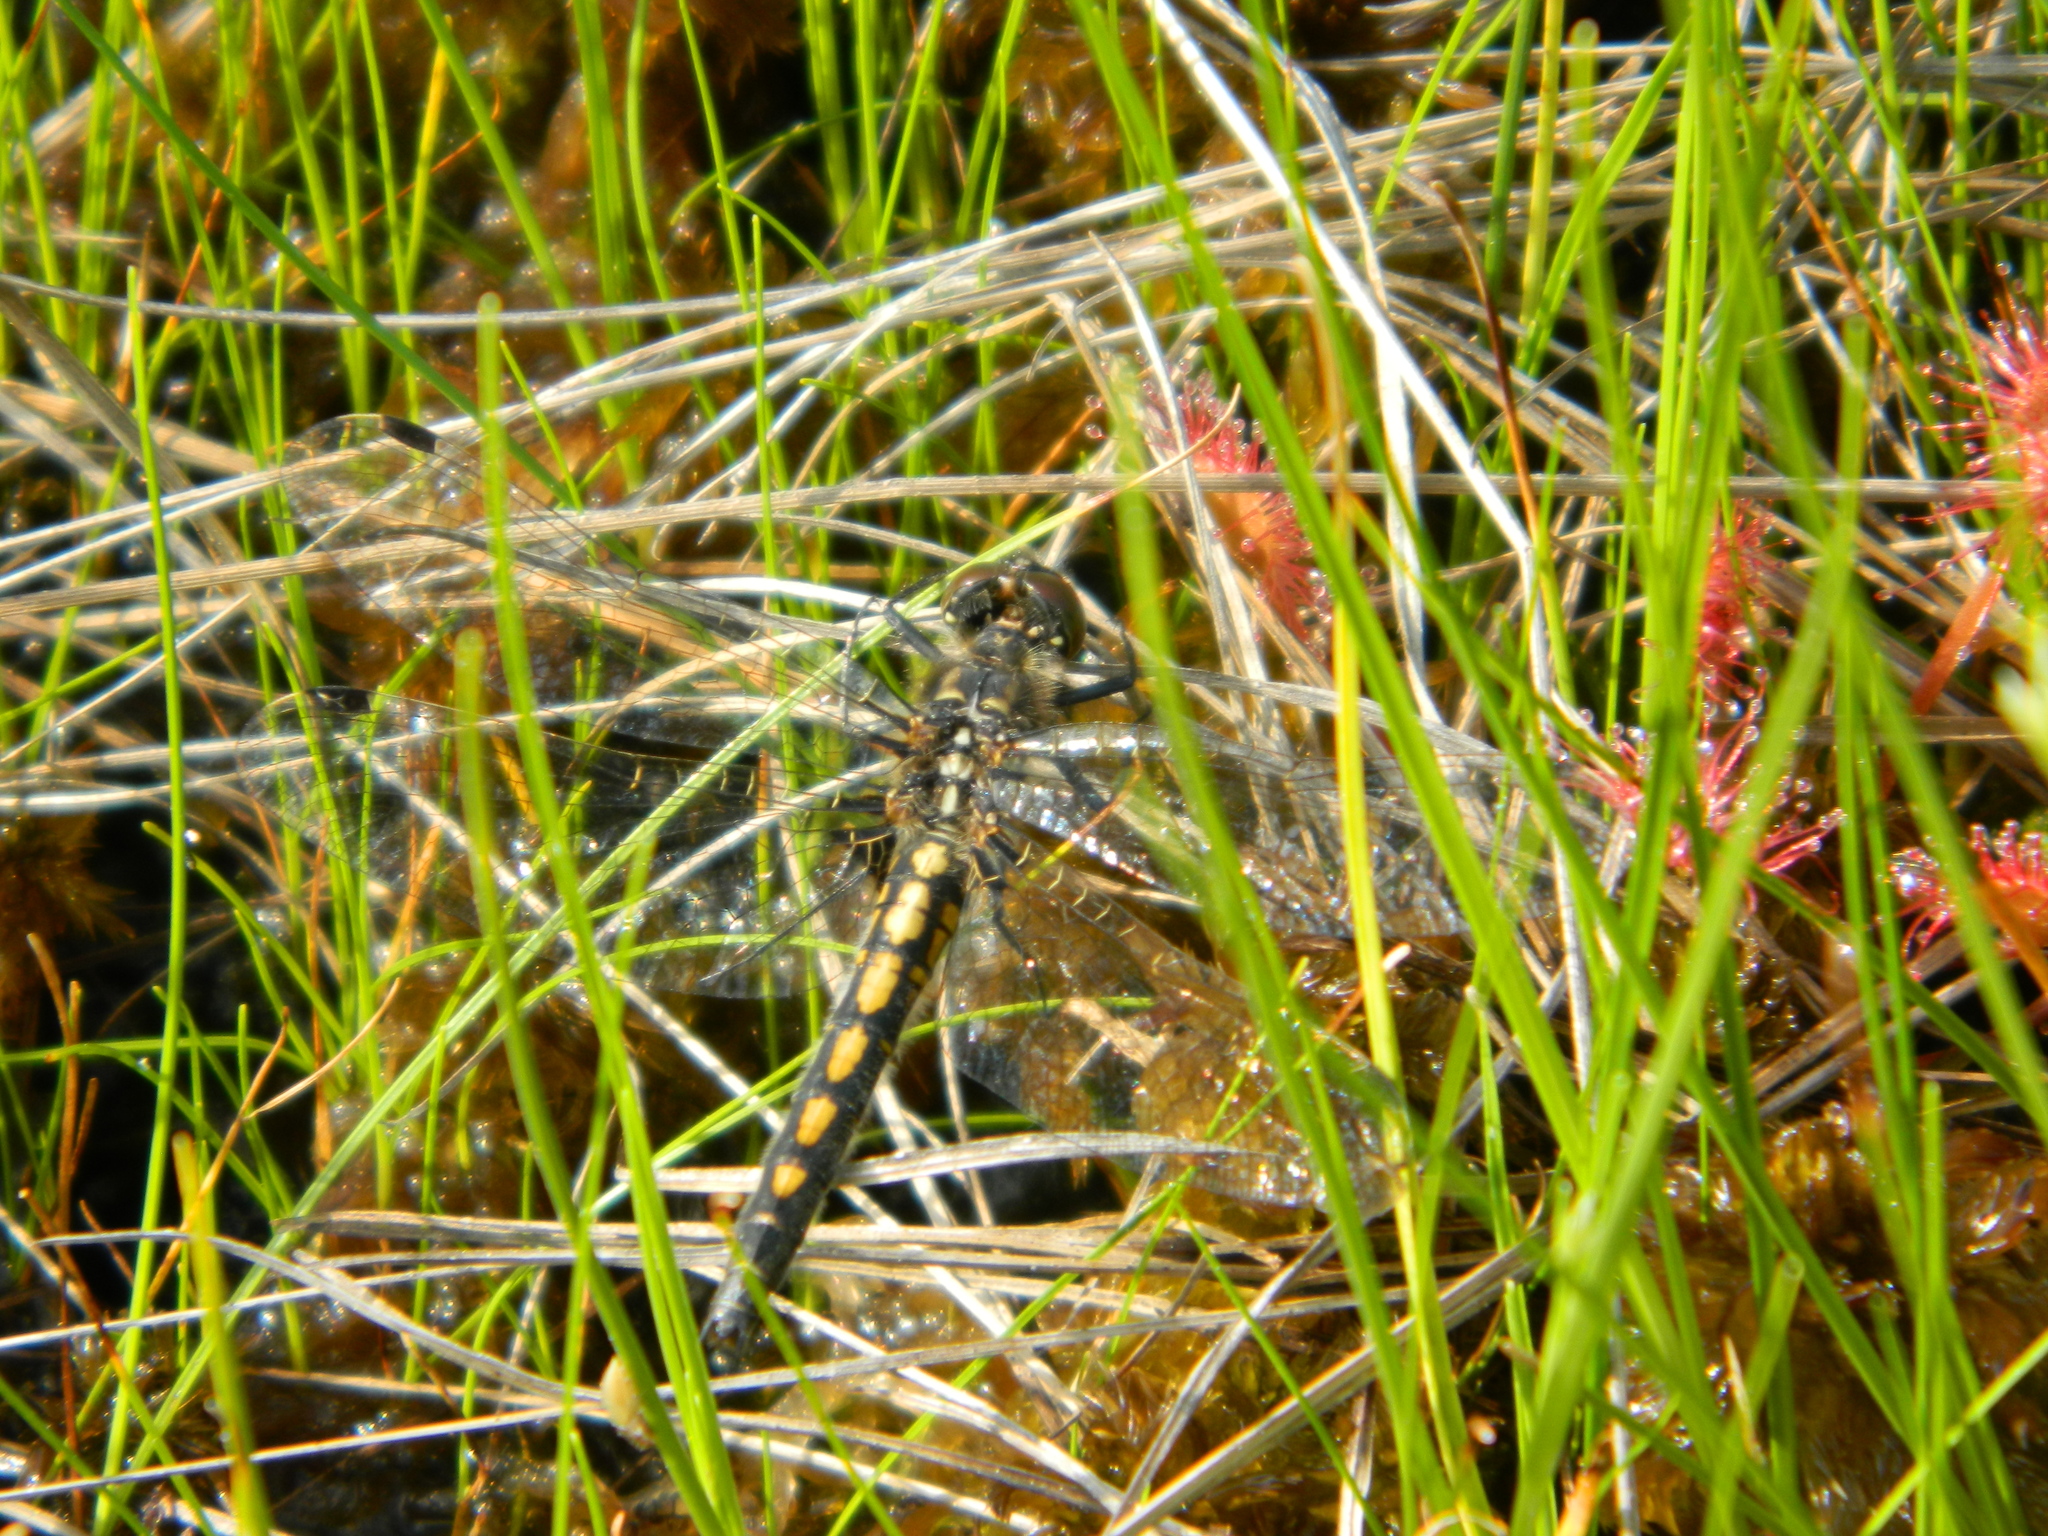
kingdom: Animalia
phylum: Arthropoda
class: Insecta
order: Odonata
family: Libellulidae
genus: Leucorrhinia
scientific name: Leucorrhinia hudsonica
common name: Hudsonian whiteface
